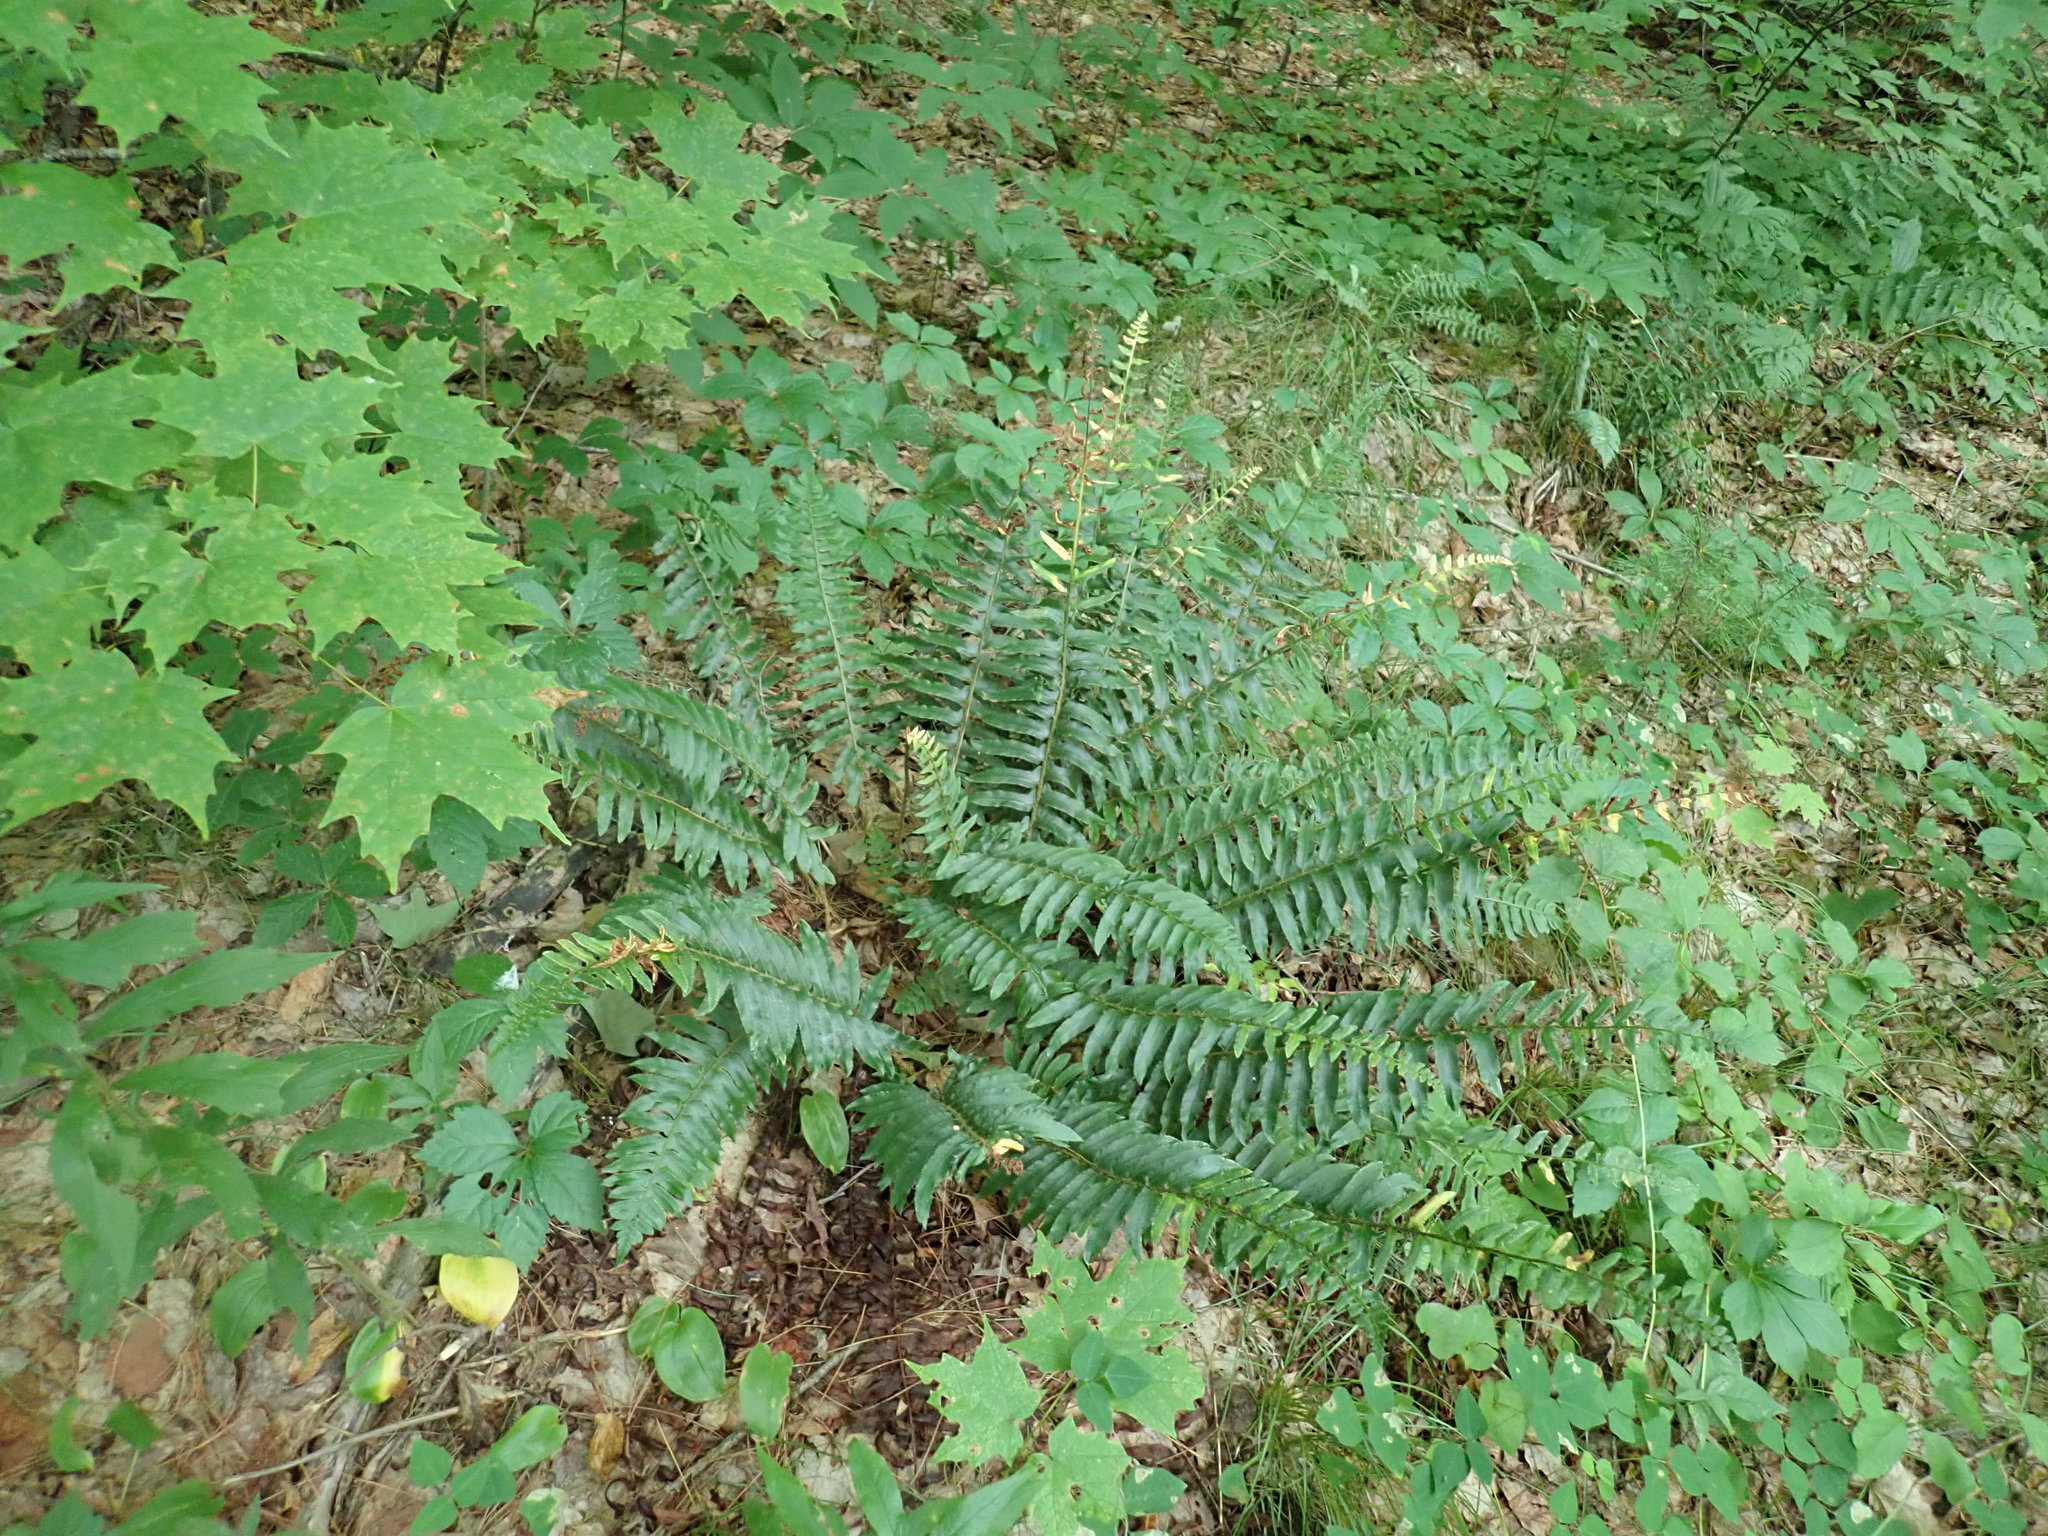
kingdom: Plantae
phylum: Tracheophyta
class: Polypodiopsida
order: Polypodiales
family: Dryopteridaceae
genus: Polystichum
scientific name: Polystichum acrostichoides
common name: Christmas fern
